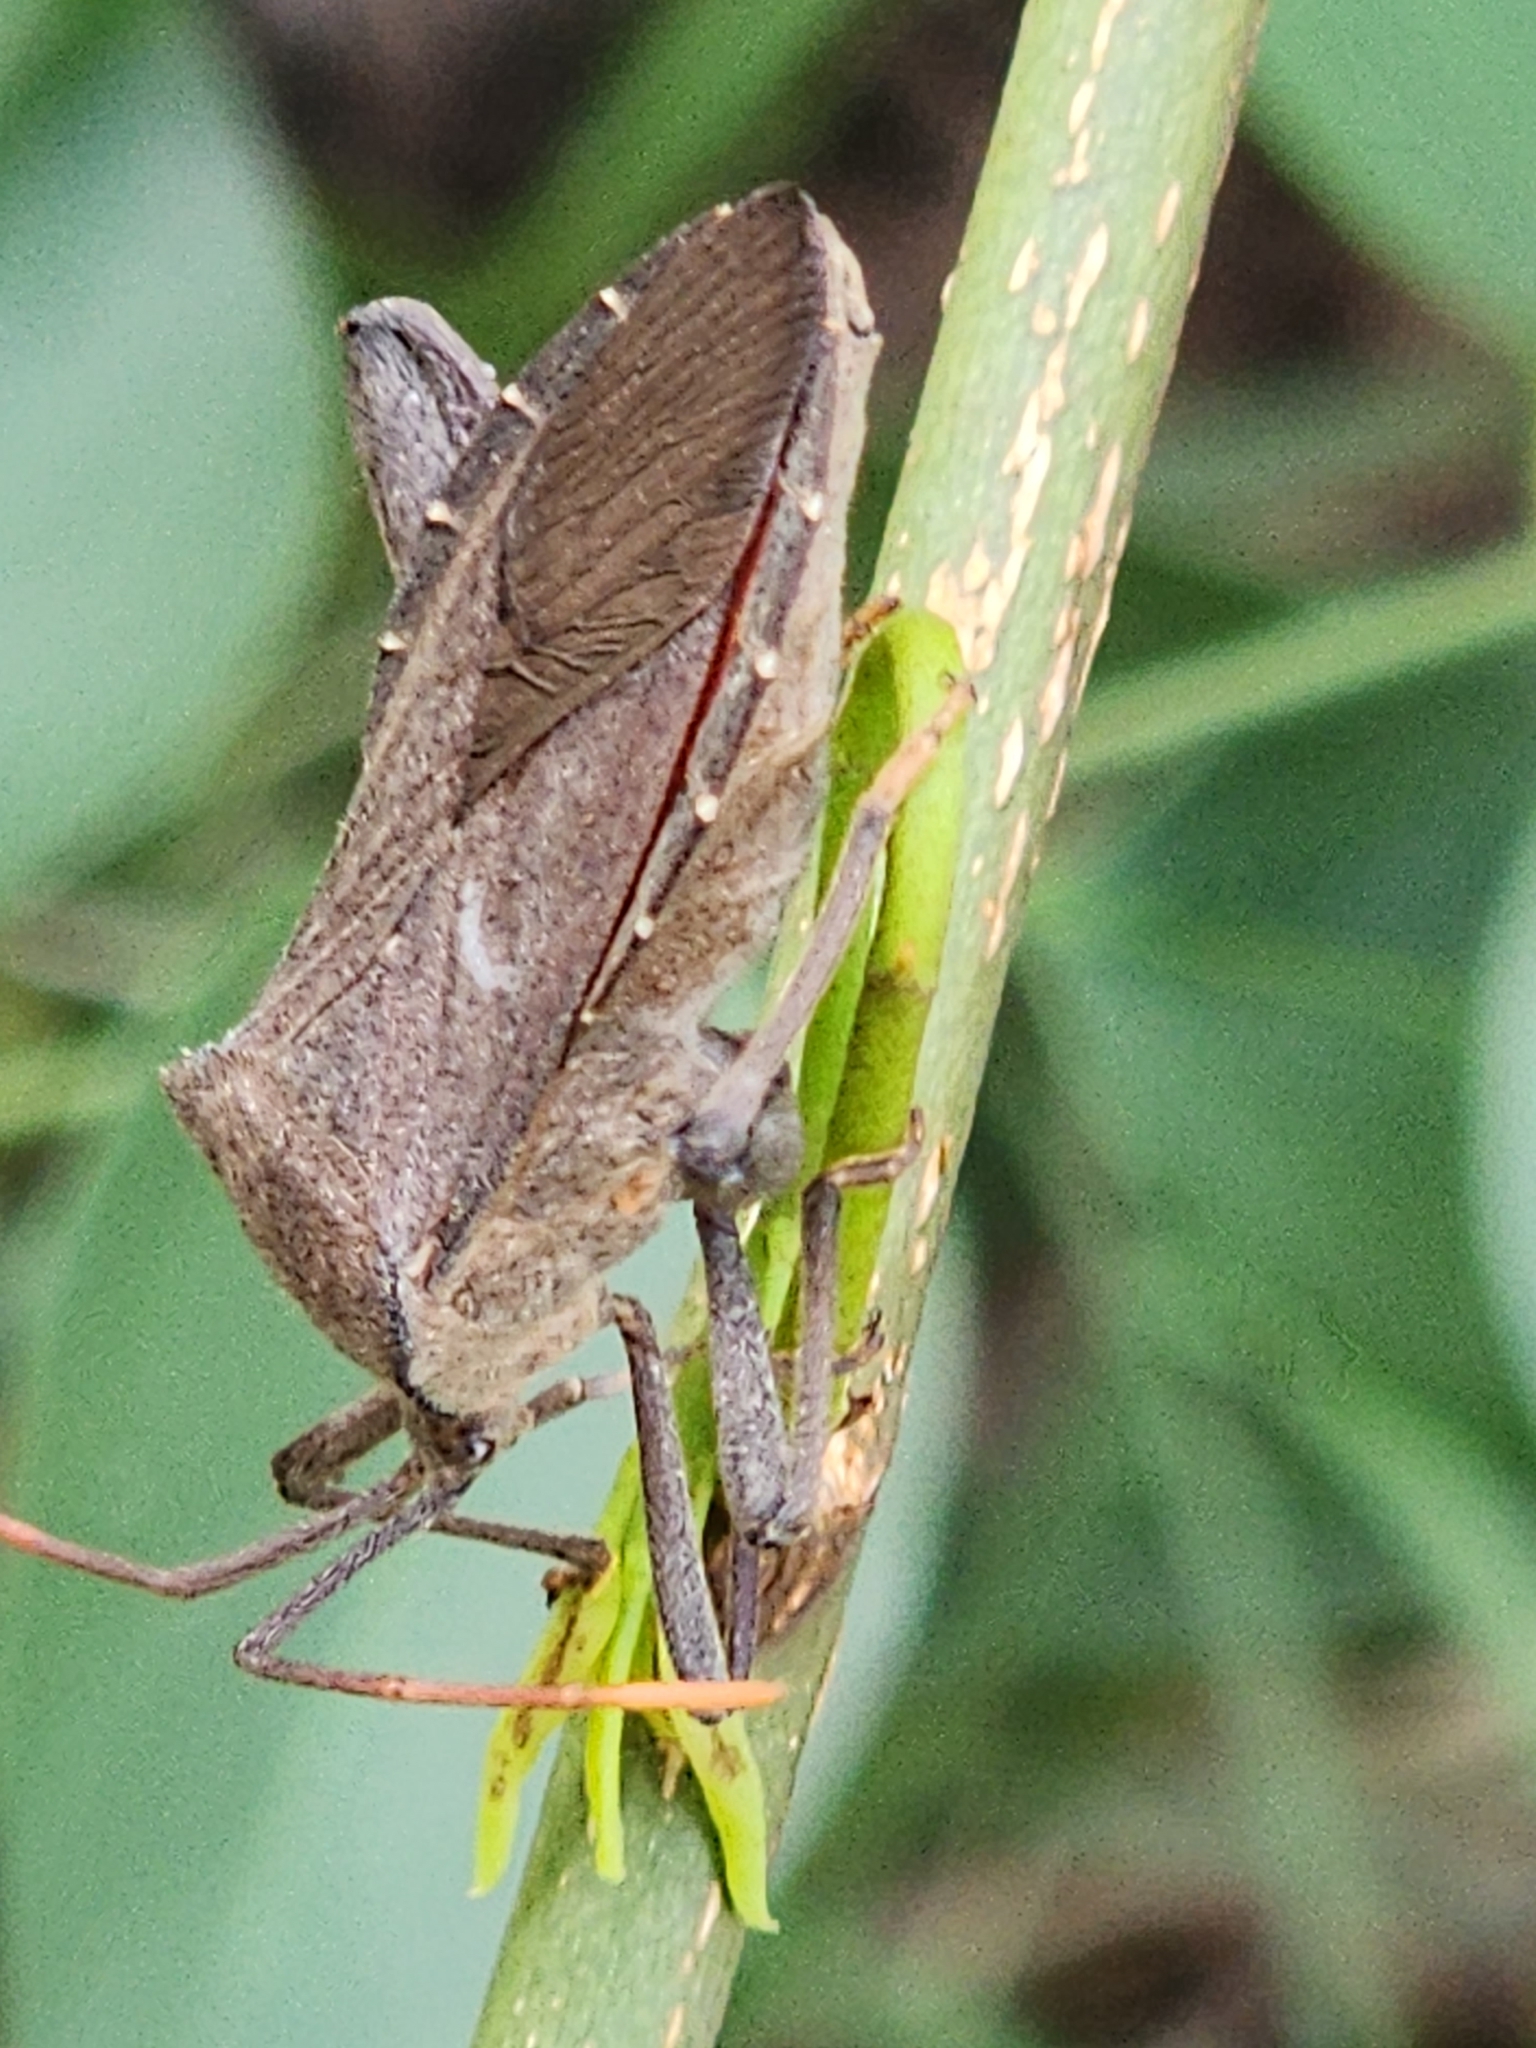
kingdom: Animalia
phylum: Arthropoda
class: Insecta
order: Hemiptera
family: Coreidae
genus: Mictis
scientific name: Mictis difficilis
